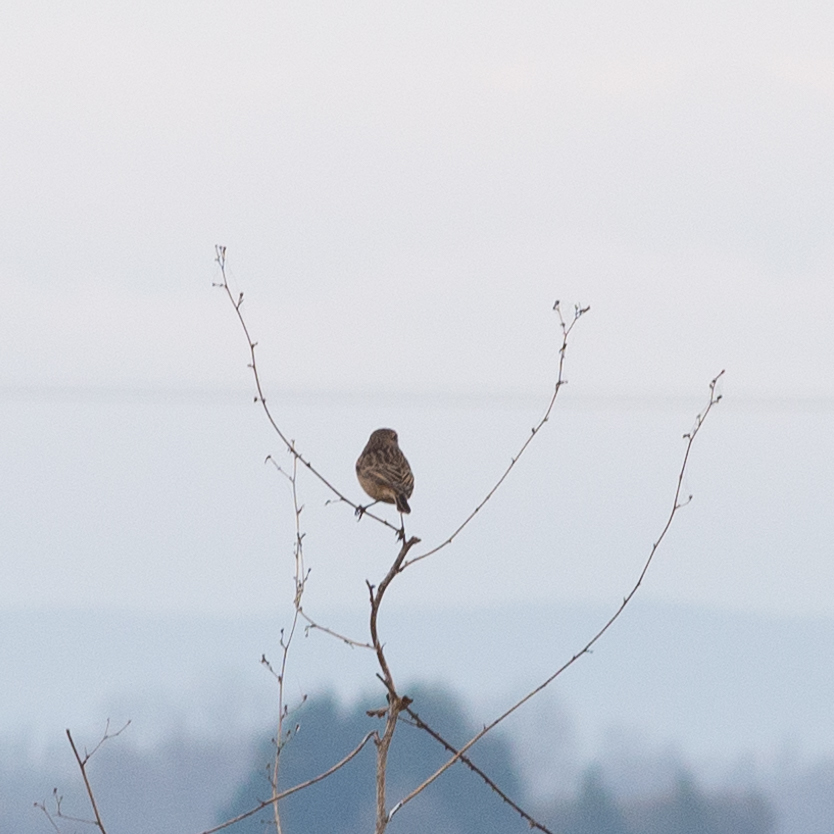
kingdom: Animalia
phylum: Chordata
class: Aves
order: Passeriformes
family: Muscicapidae
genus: Saxicola
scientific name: Saxicola rubicola
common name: European stonechat
